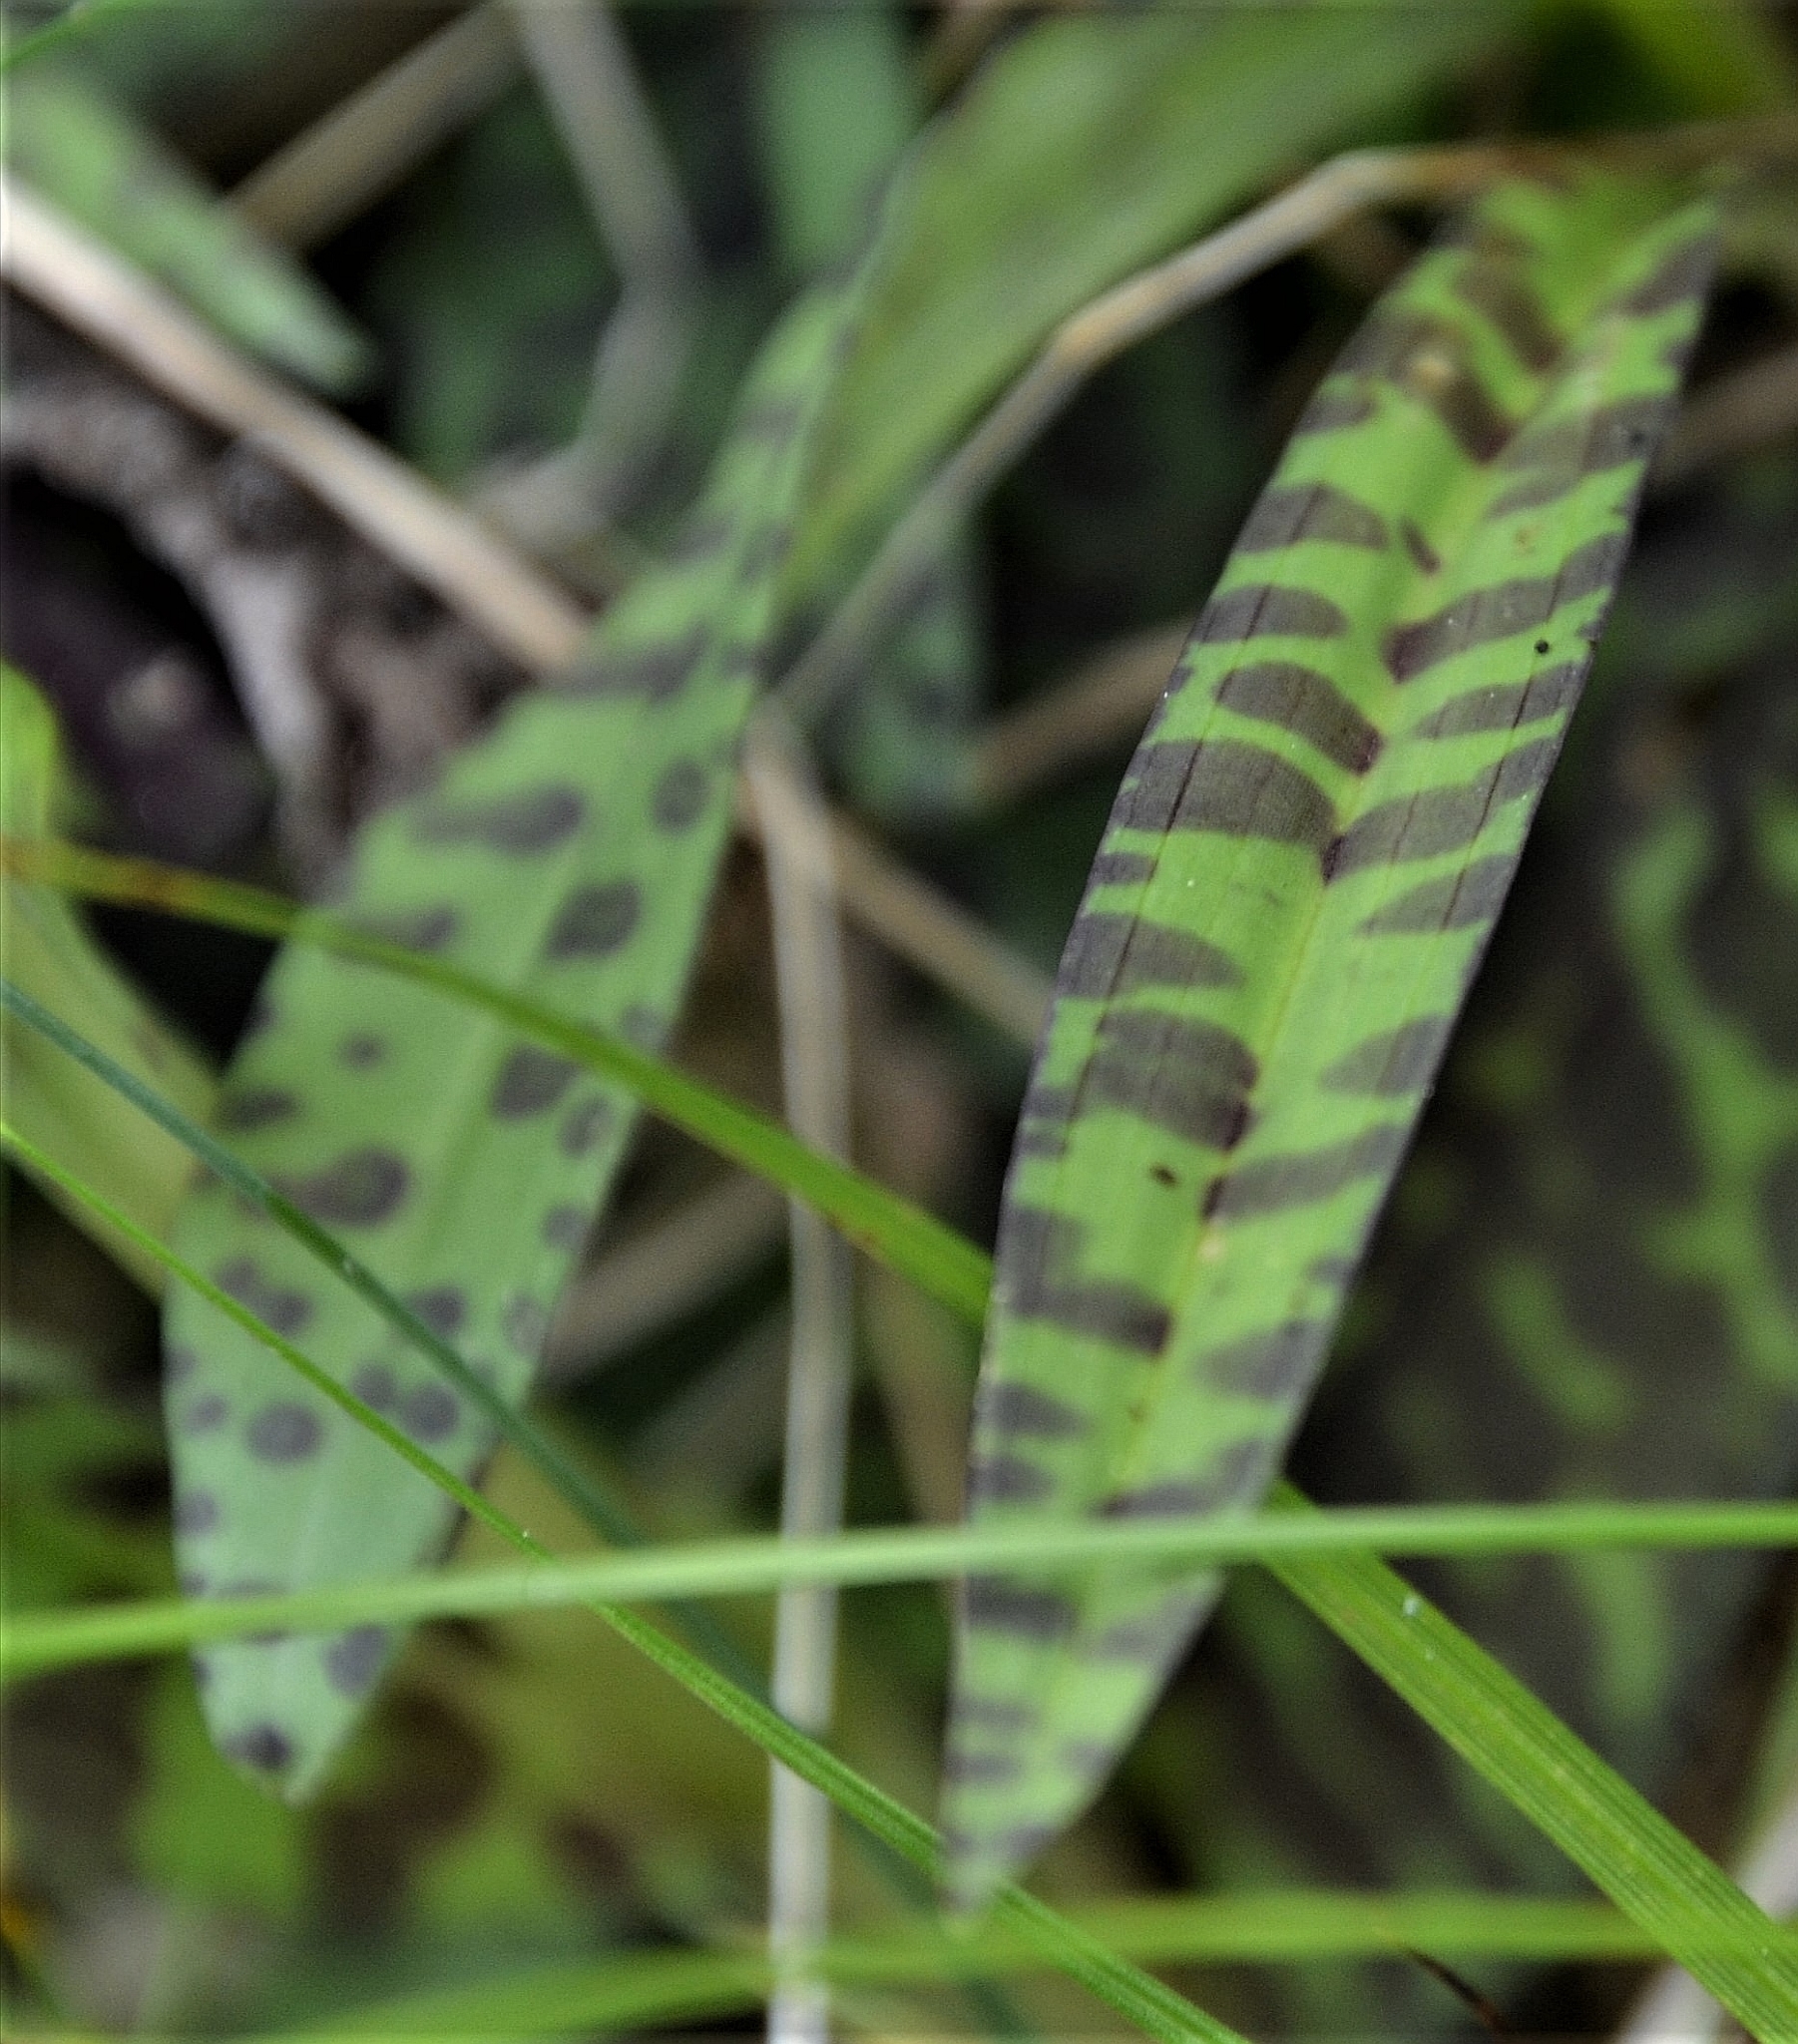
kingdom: Plantae
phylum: Tracheophyta
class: Liliopsida
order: Asparagales
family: Orchidaceae
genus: Dactylorhiza
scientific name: Dactylorhiza maculata
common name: Heath spotted-orchid
